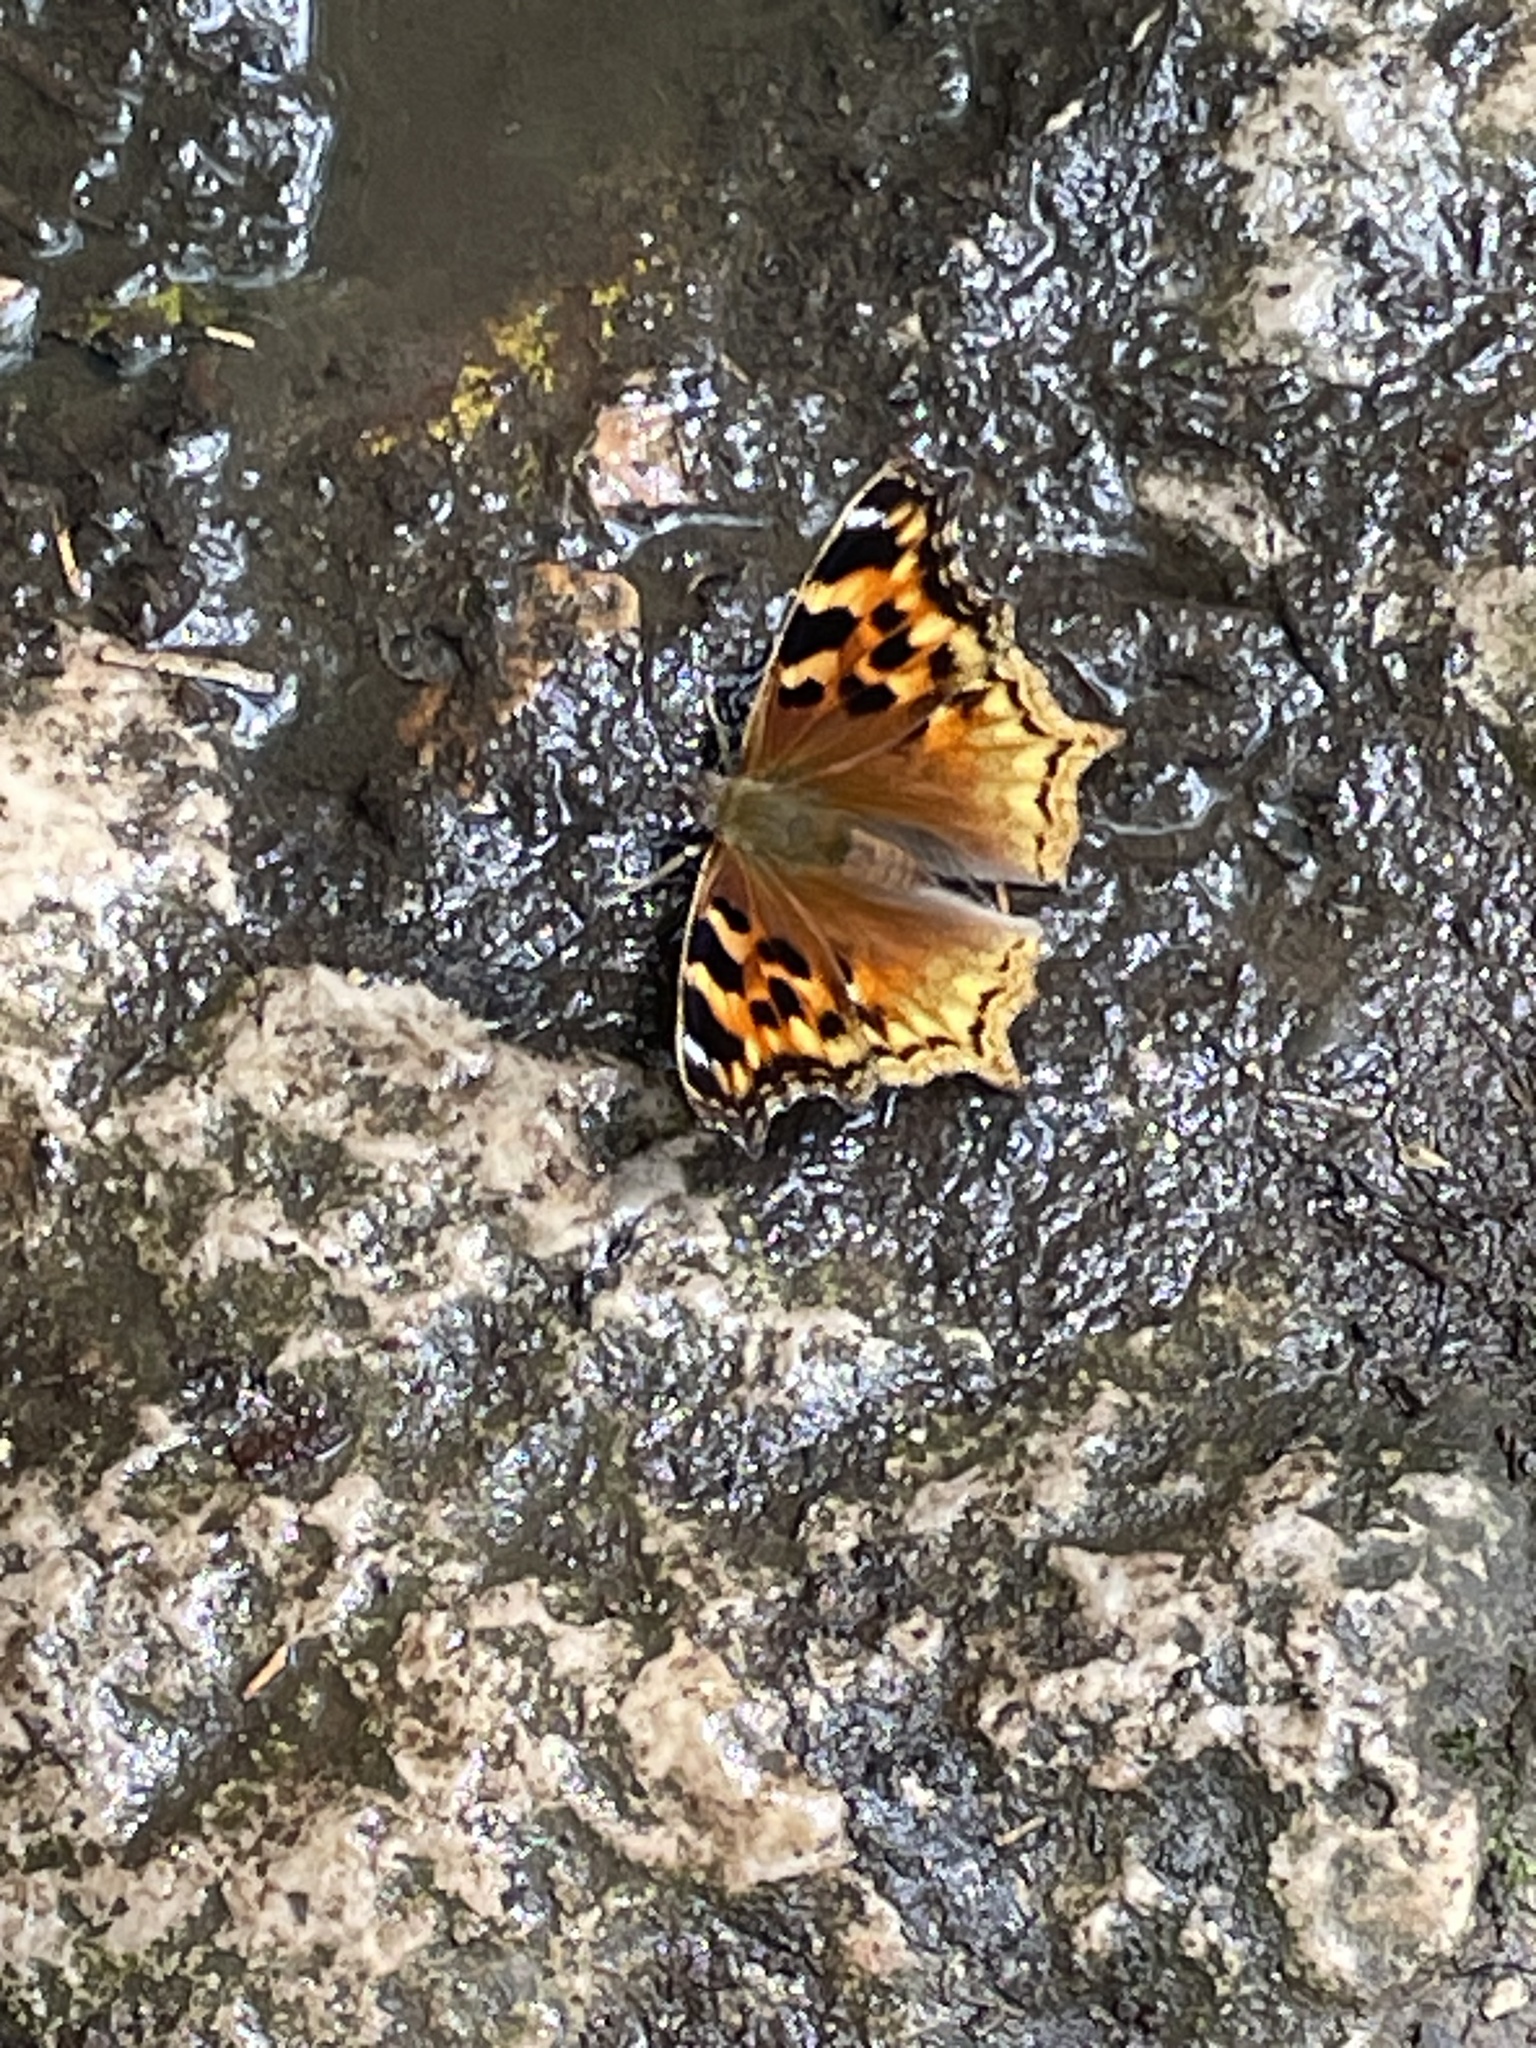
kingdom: Animalia
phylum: Arthropoda
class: Insecta
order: Lepidoptera
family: Nymphalidae
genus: Polygonia
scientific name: Polygonia vaualbum
